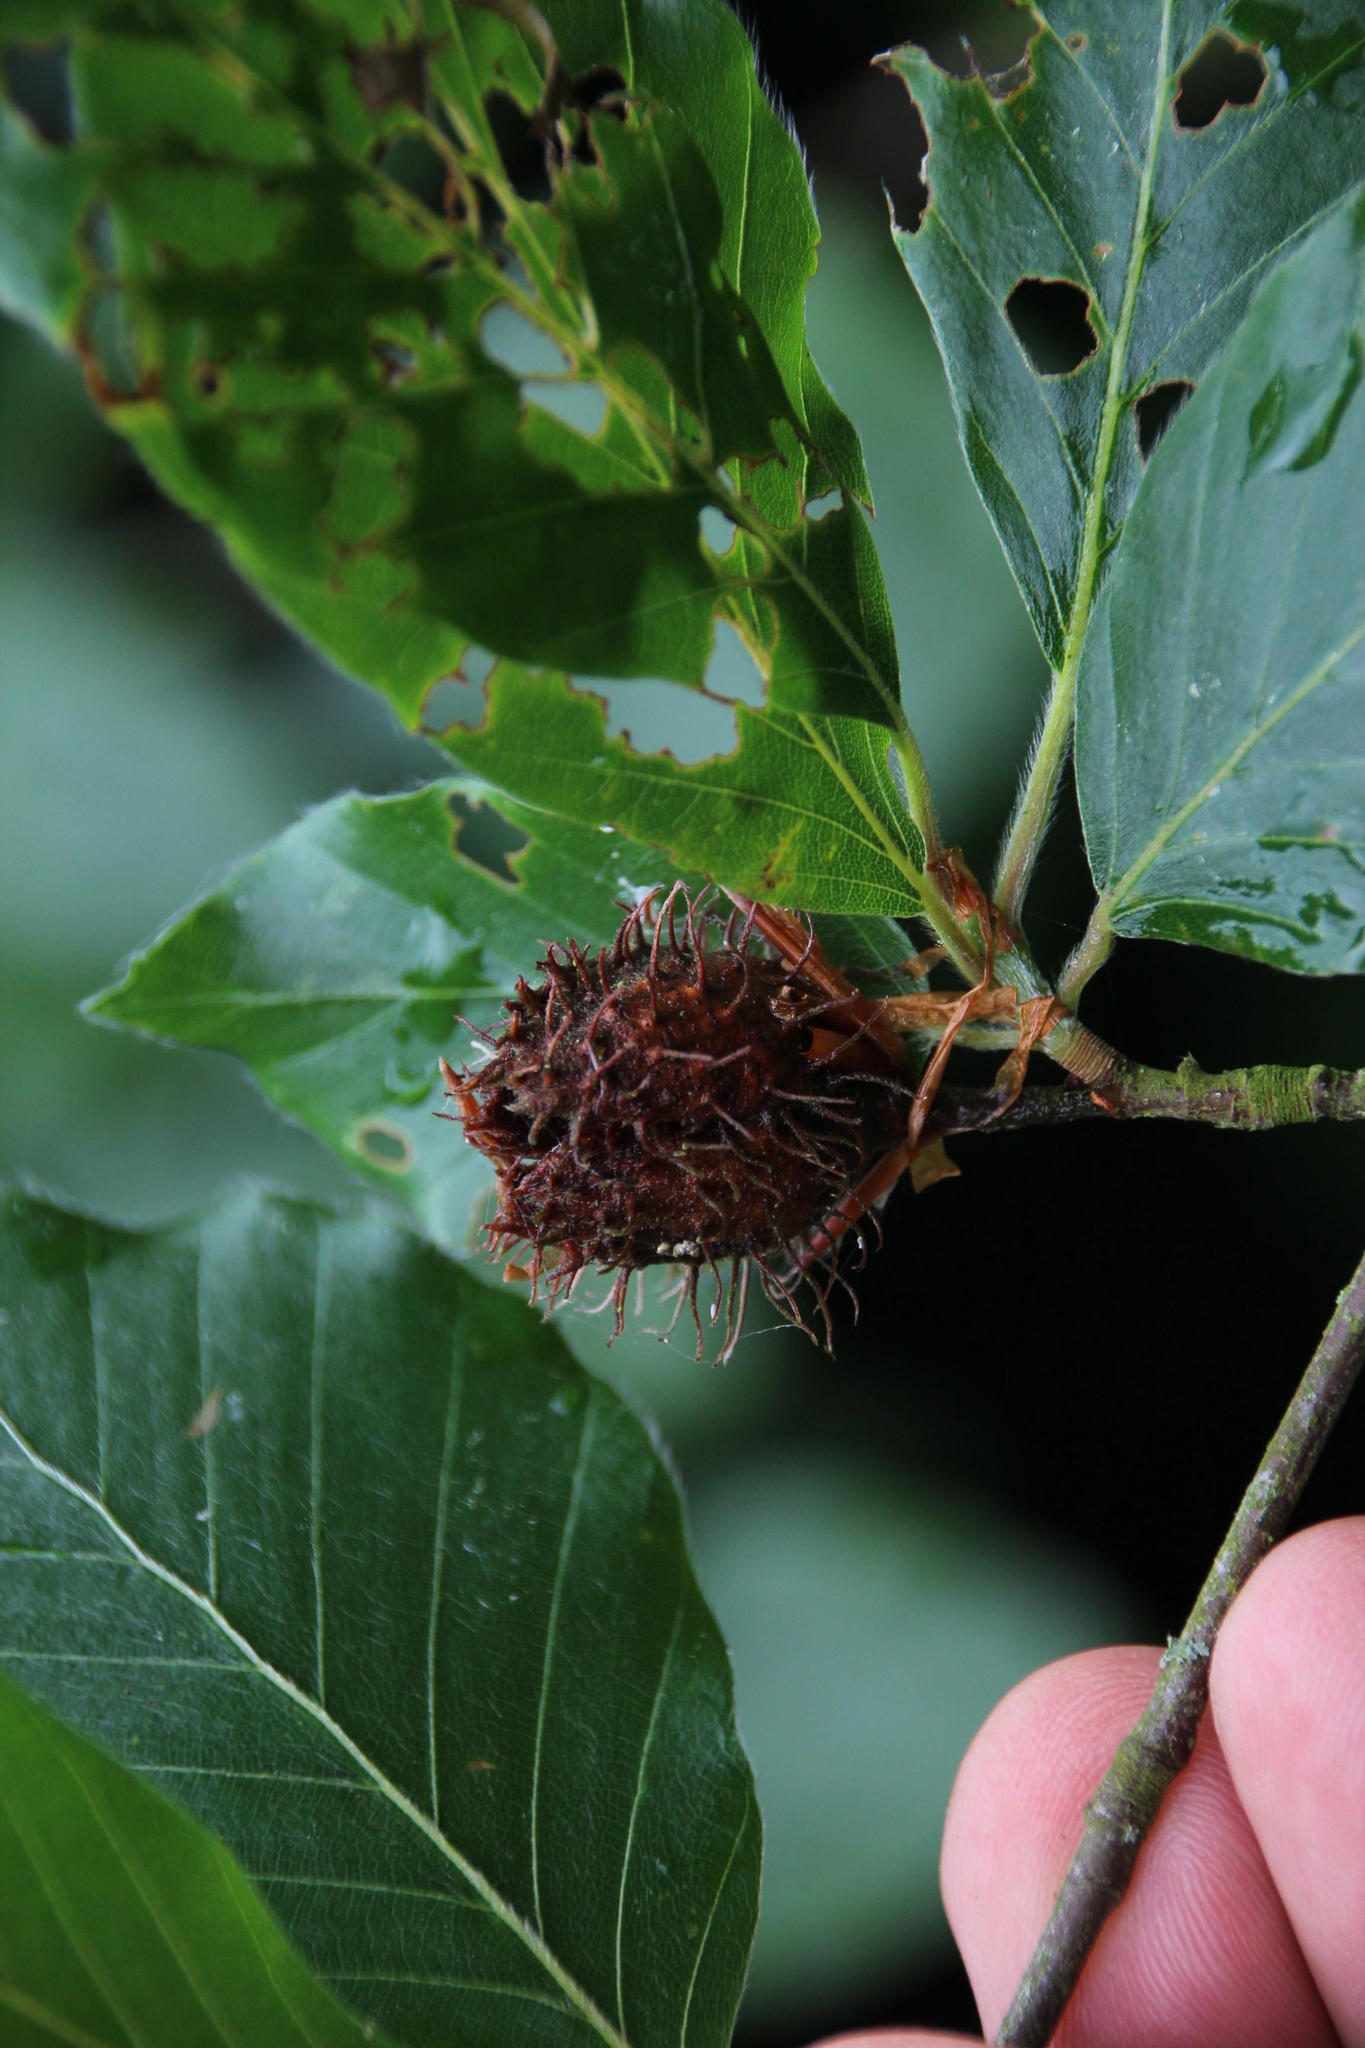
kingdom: Plantae
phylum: Tracheophyta
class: Magnoliopsida
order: Fagales
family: Fagaceae
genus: Fagus
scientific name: Fagus sylvatica
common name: Beech
